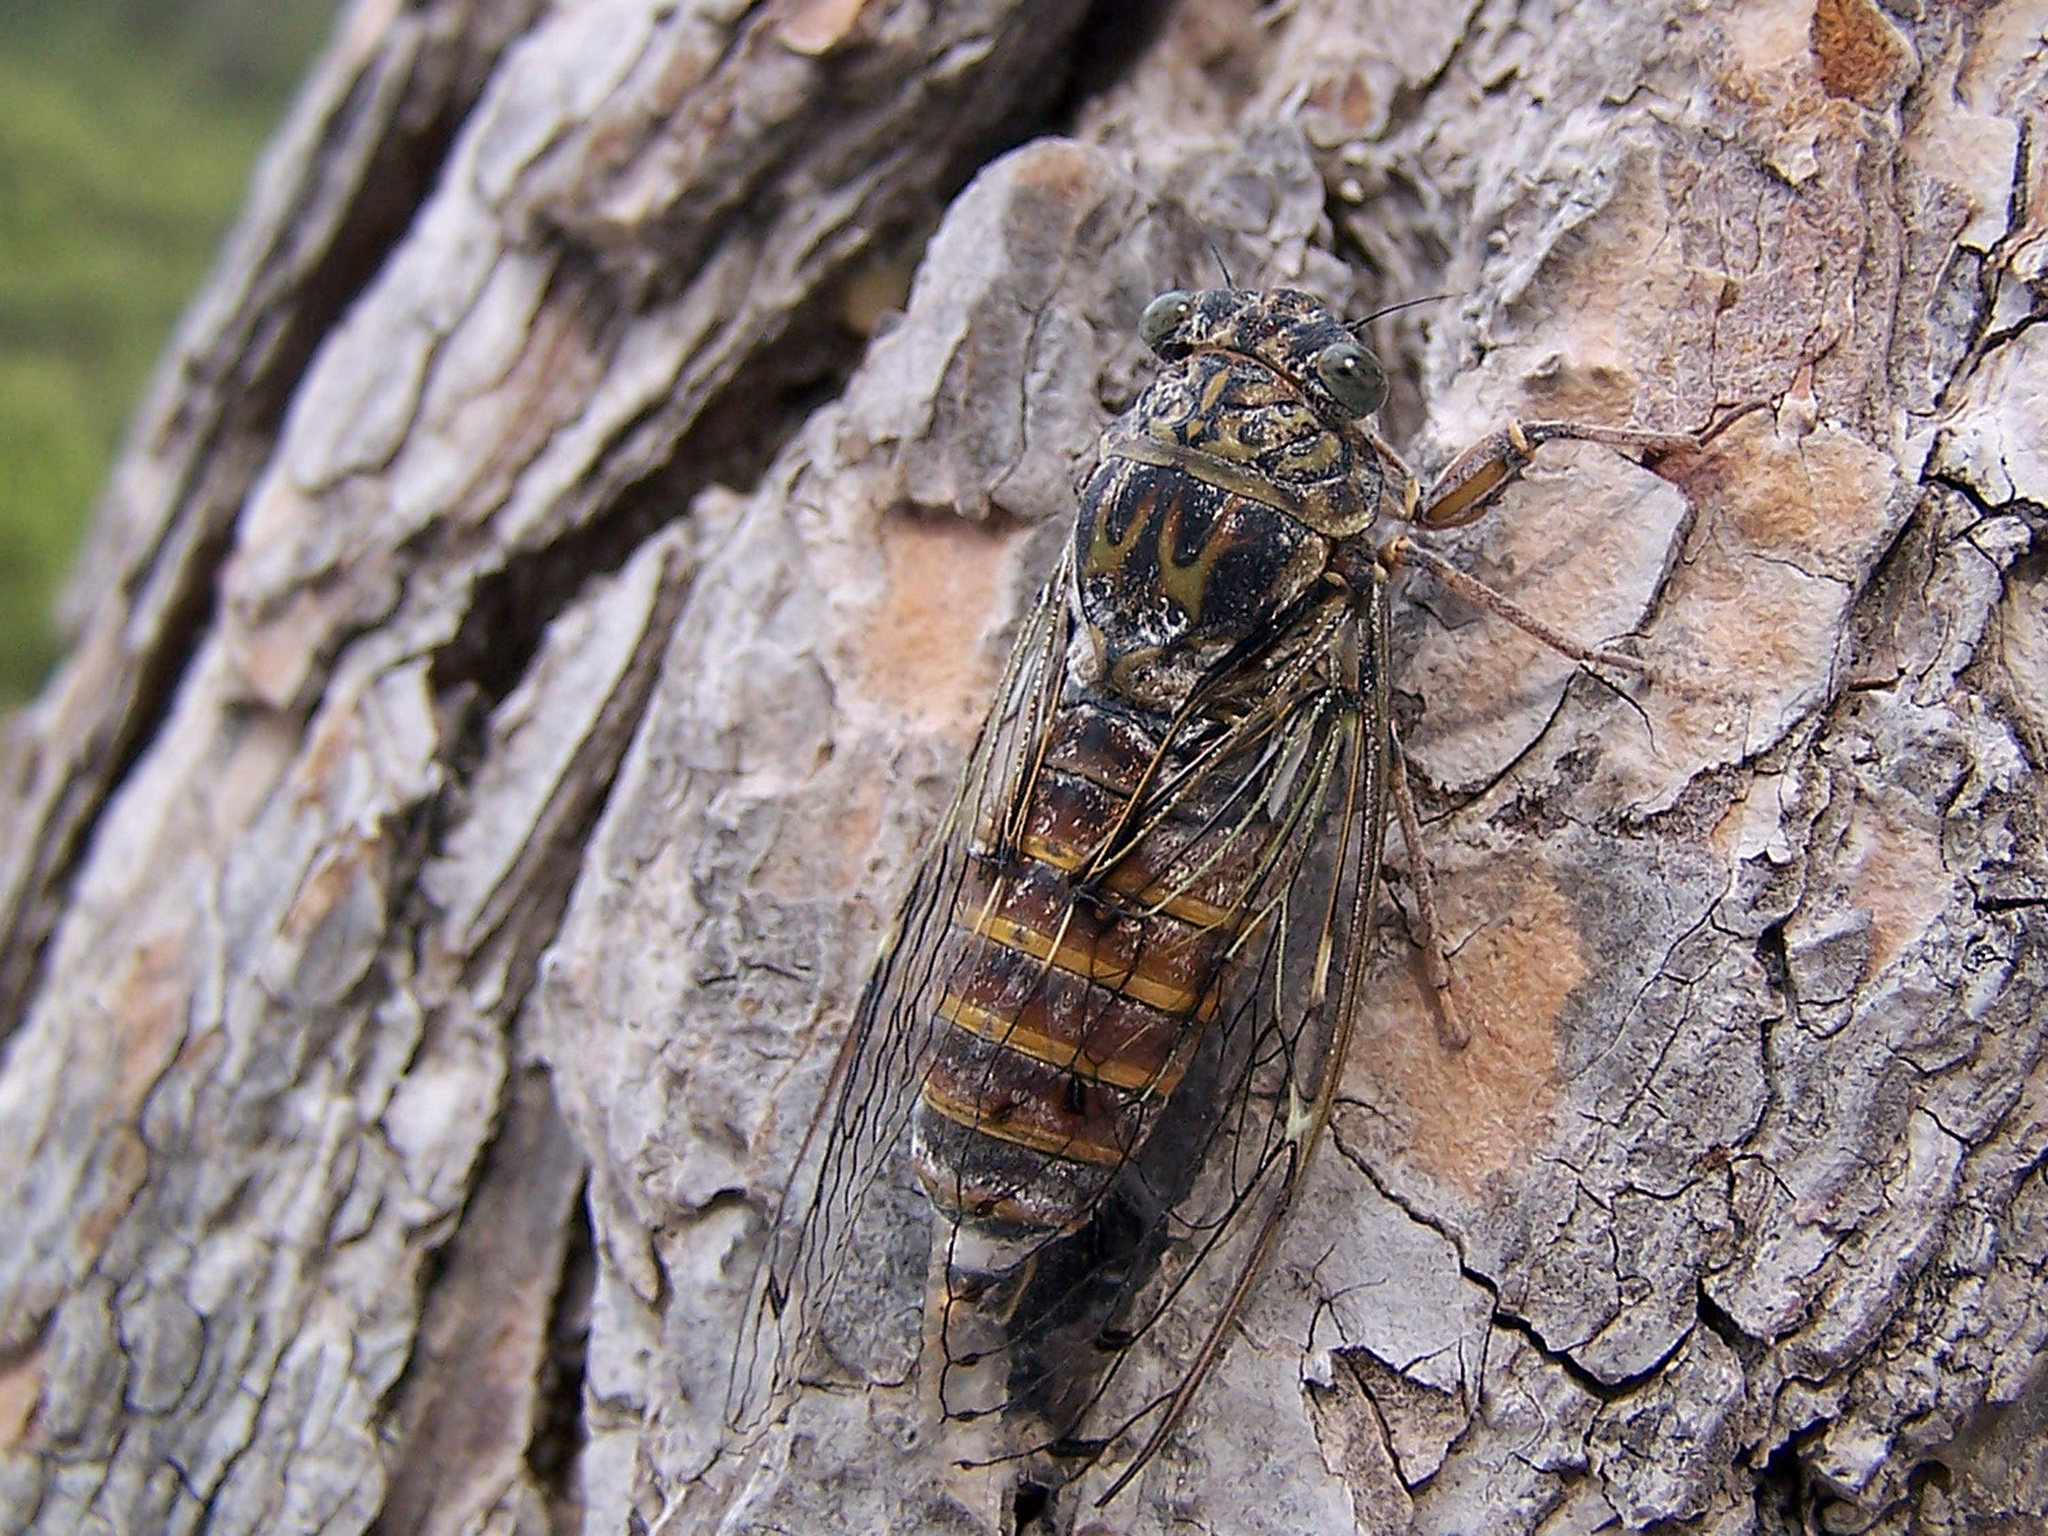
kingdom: Animalia
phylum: Arthropoda
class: Insecta
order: Hemiptera
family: Cicadidae
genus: Cicada
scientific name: Cicada orni
